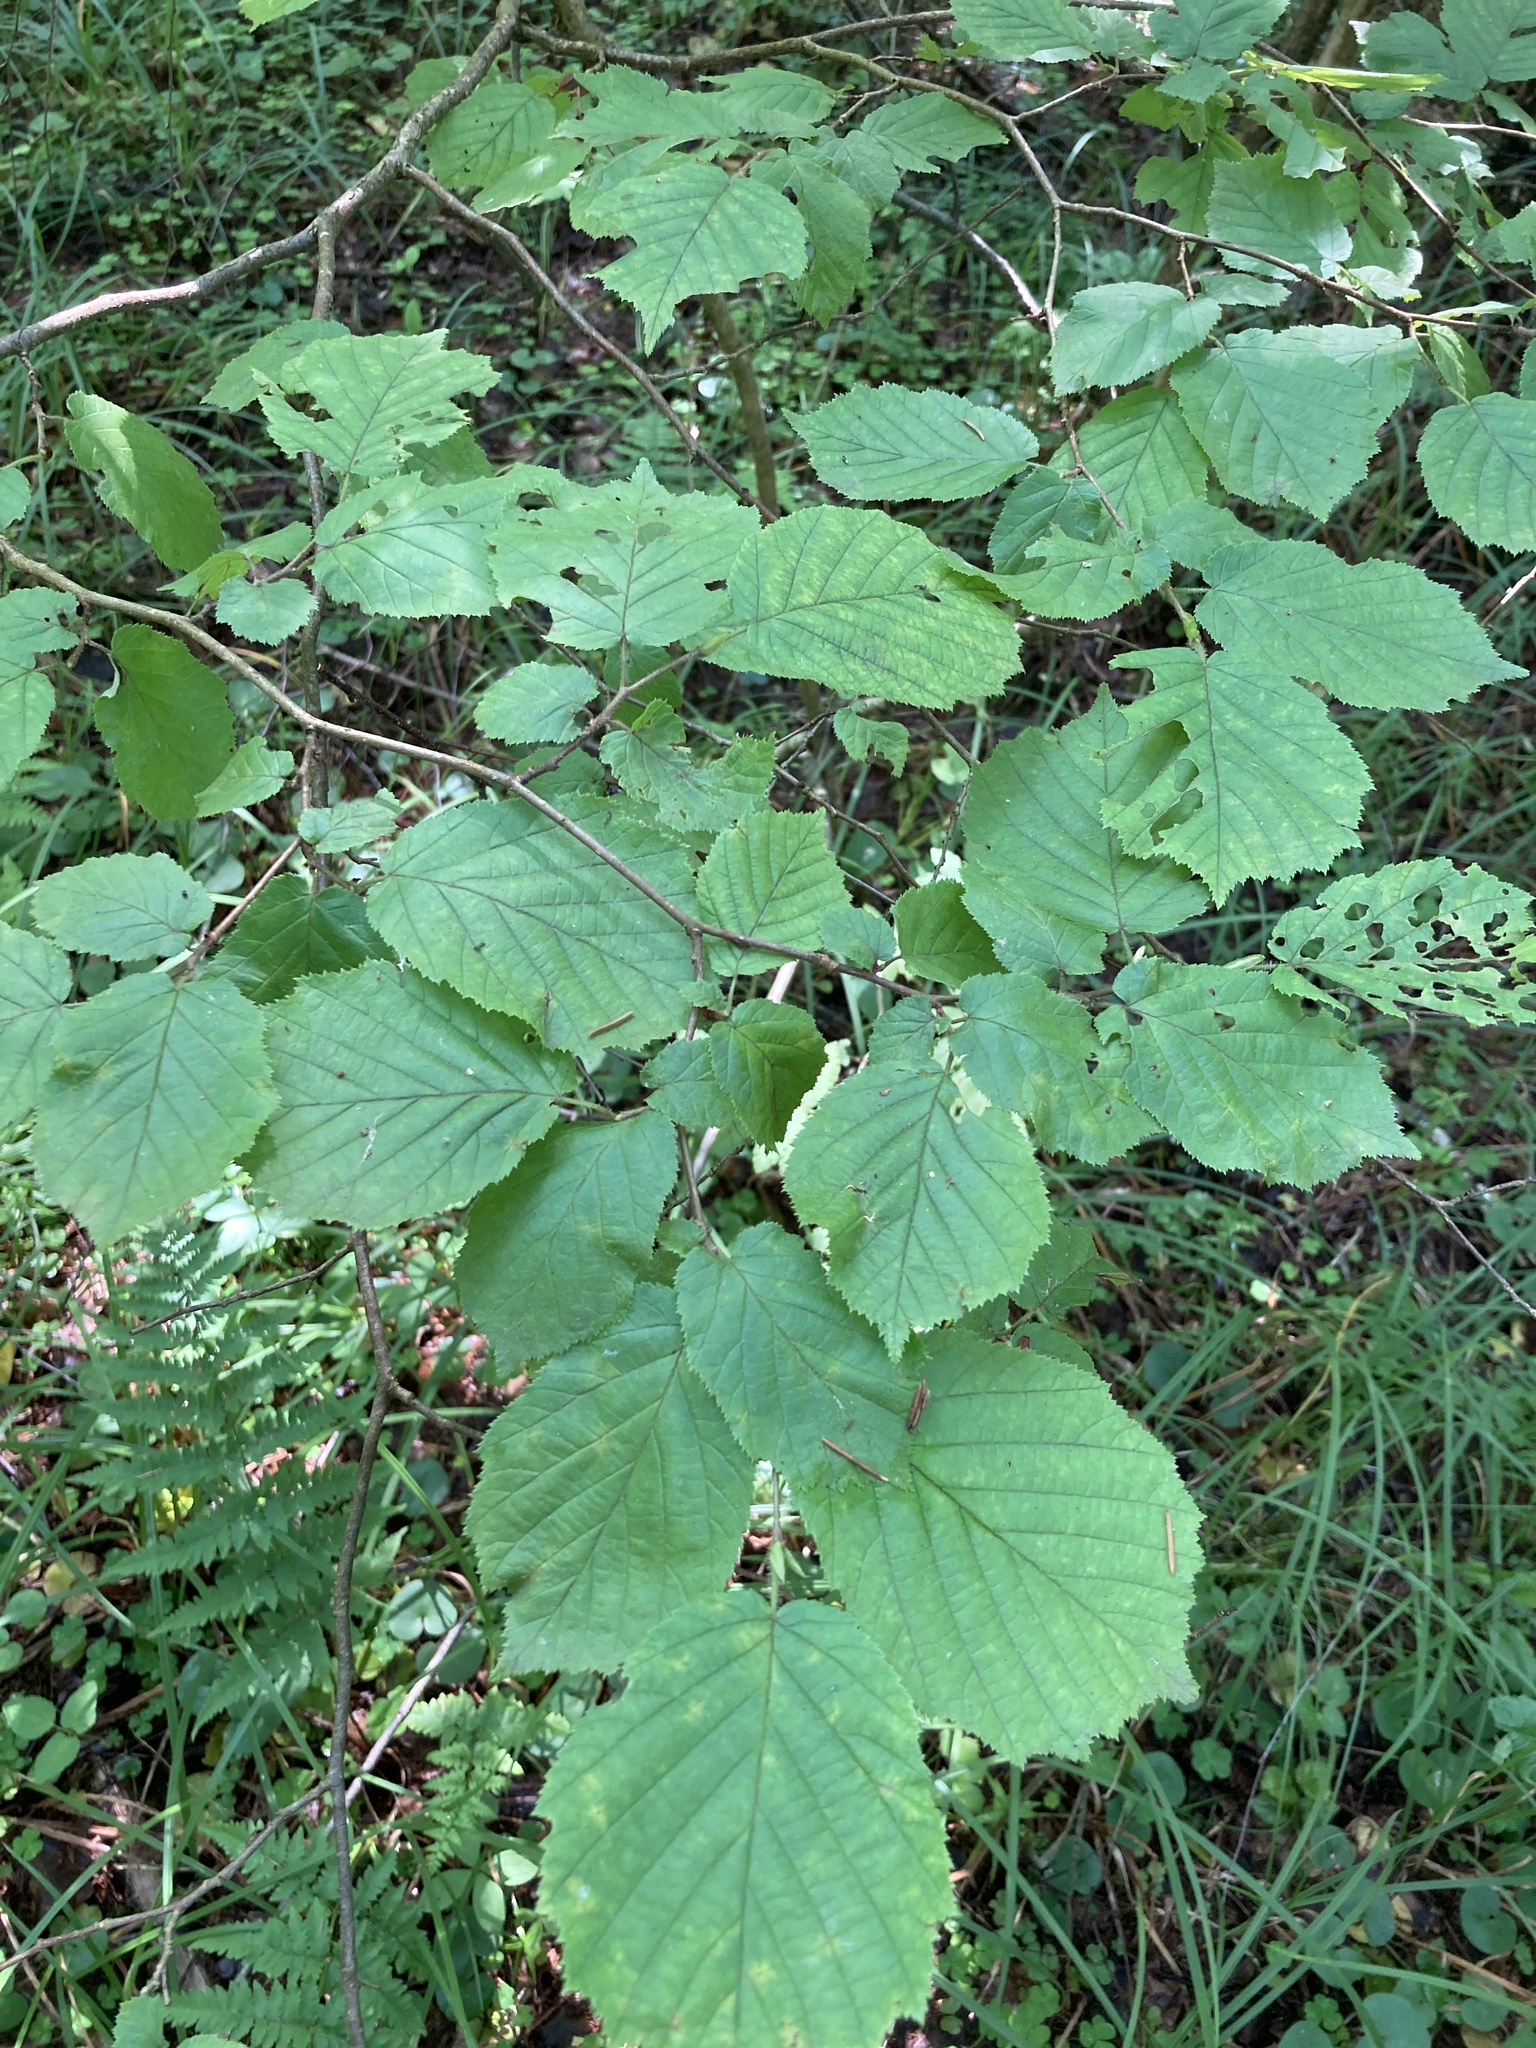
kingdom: Plantae
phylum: Tracheophyta
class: Magnoliopsida
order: Fagales
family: Betulaceae
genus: Corylus
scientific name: Corylus avellana
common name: European hazel
